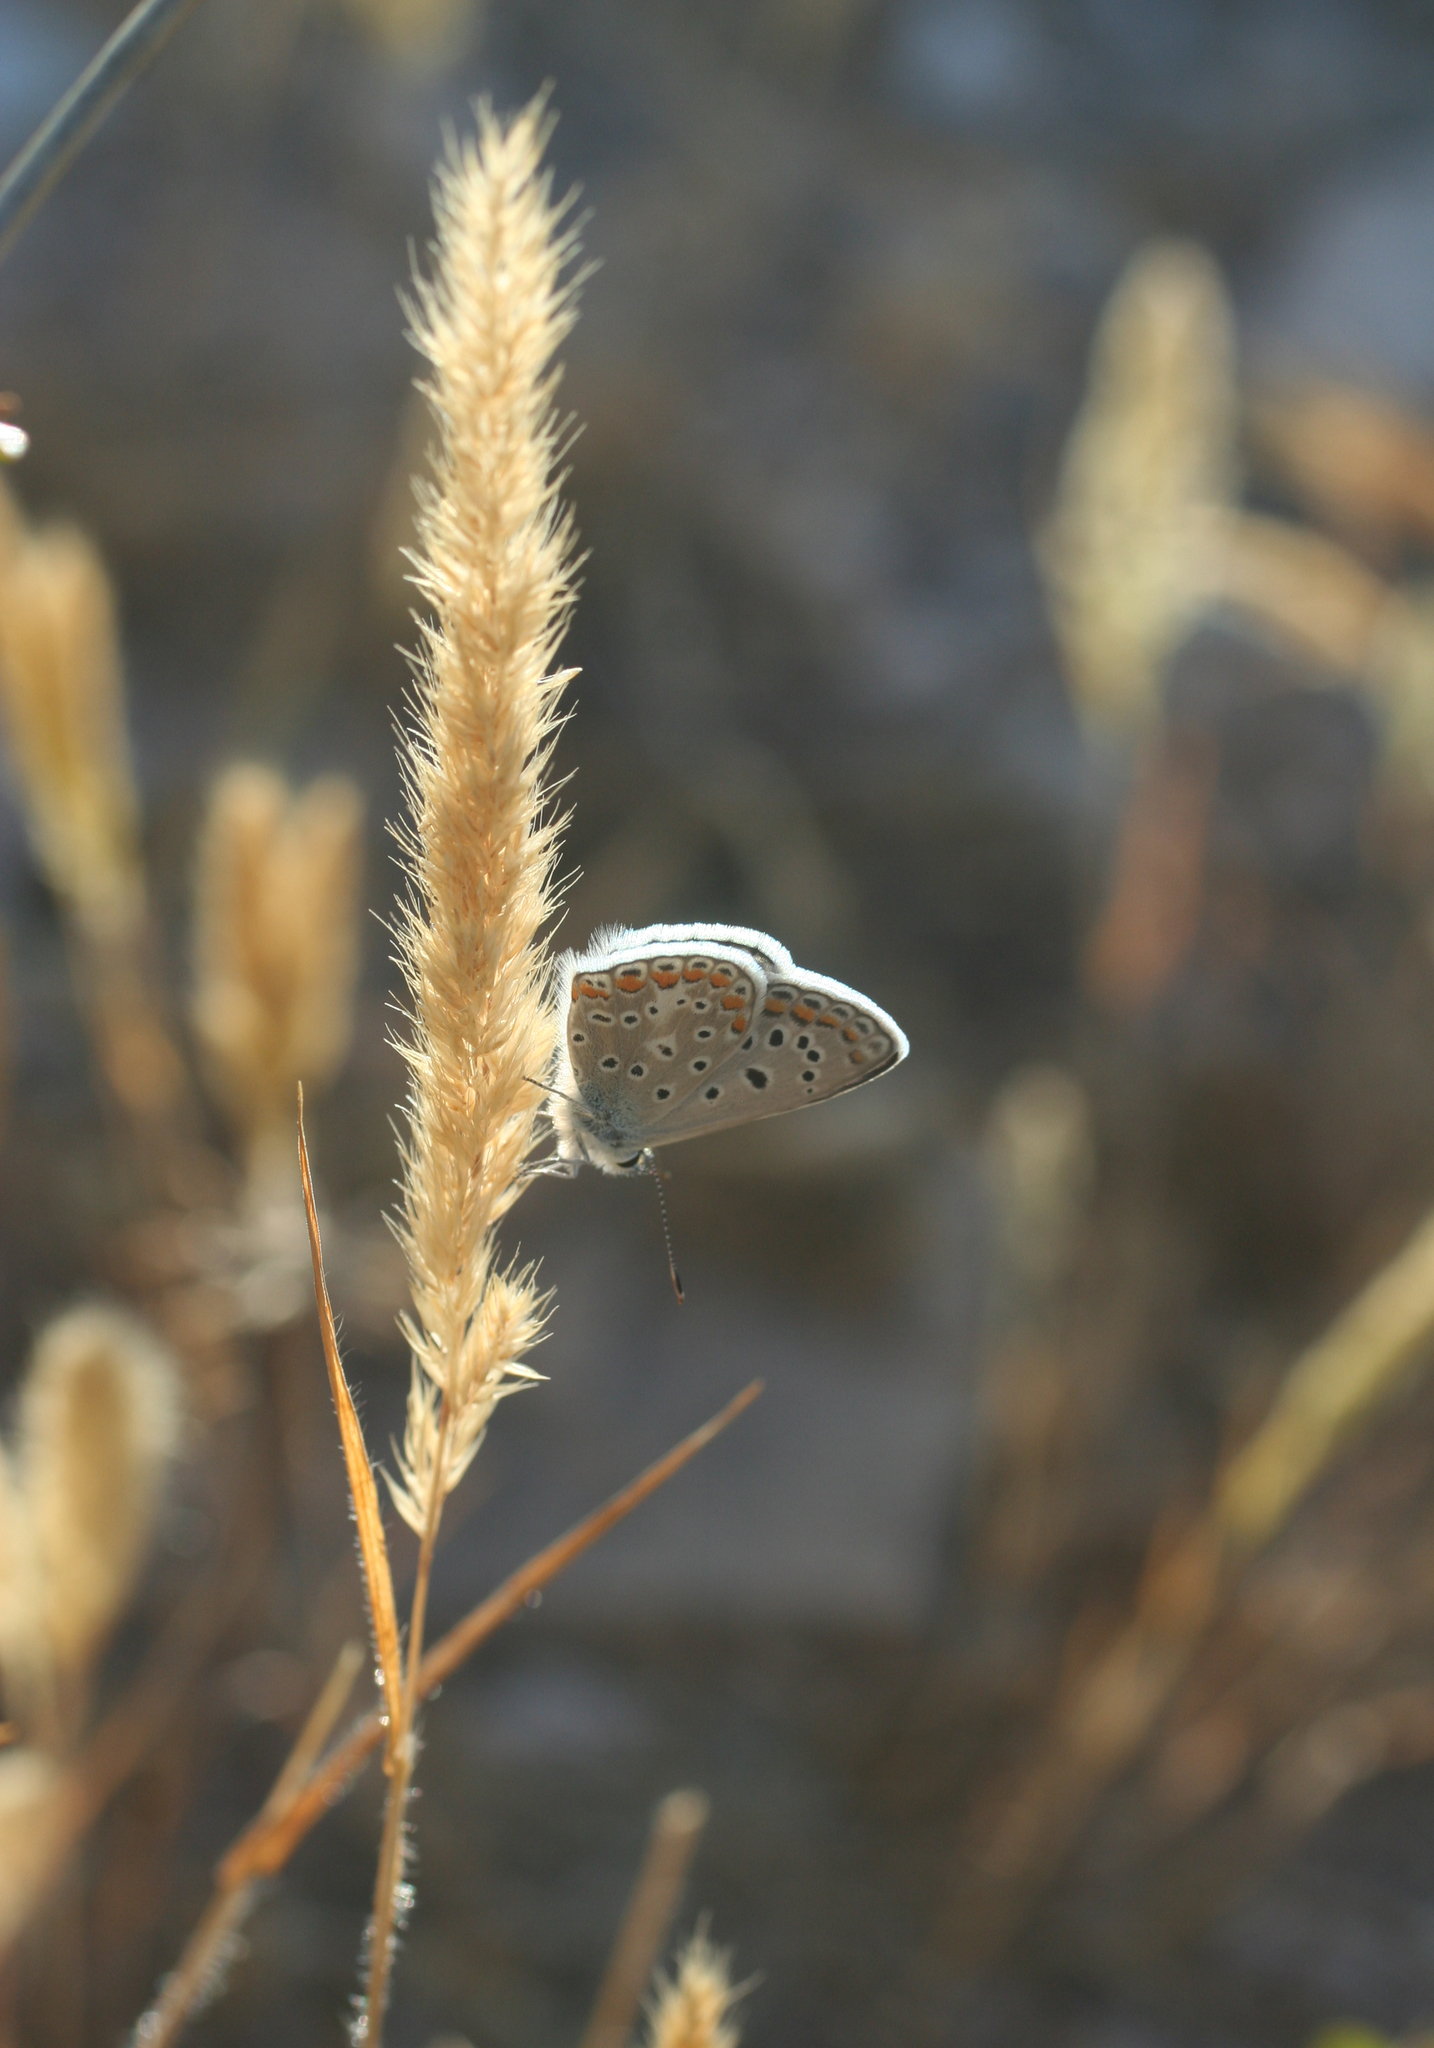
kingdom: Animalia
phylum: Arthropoda
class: Insecta
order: Lepidoptera
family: Lycaenidae
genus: Polyommatus
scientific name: Polyommatus celina
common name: Austaut's blue
